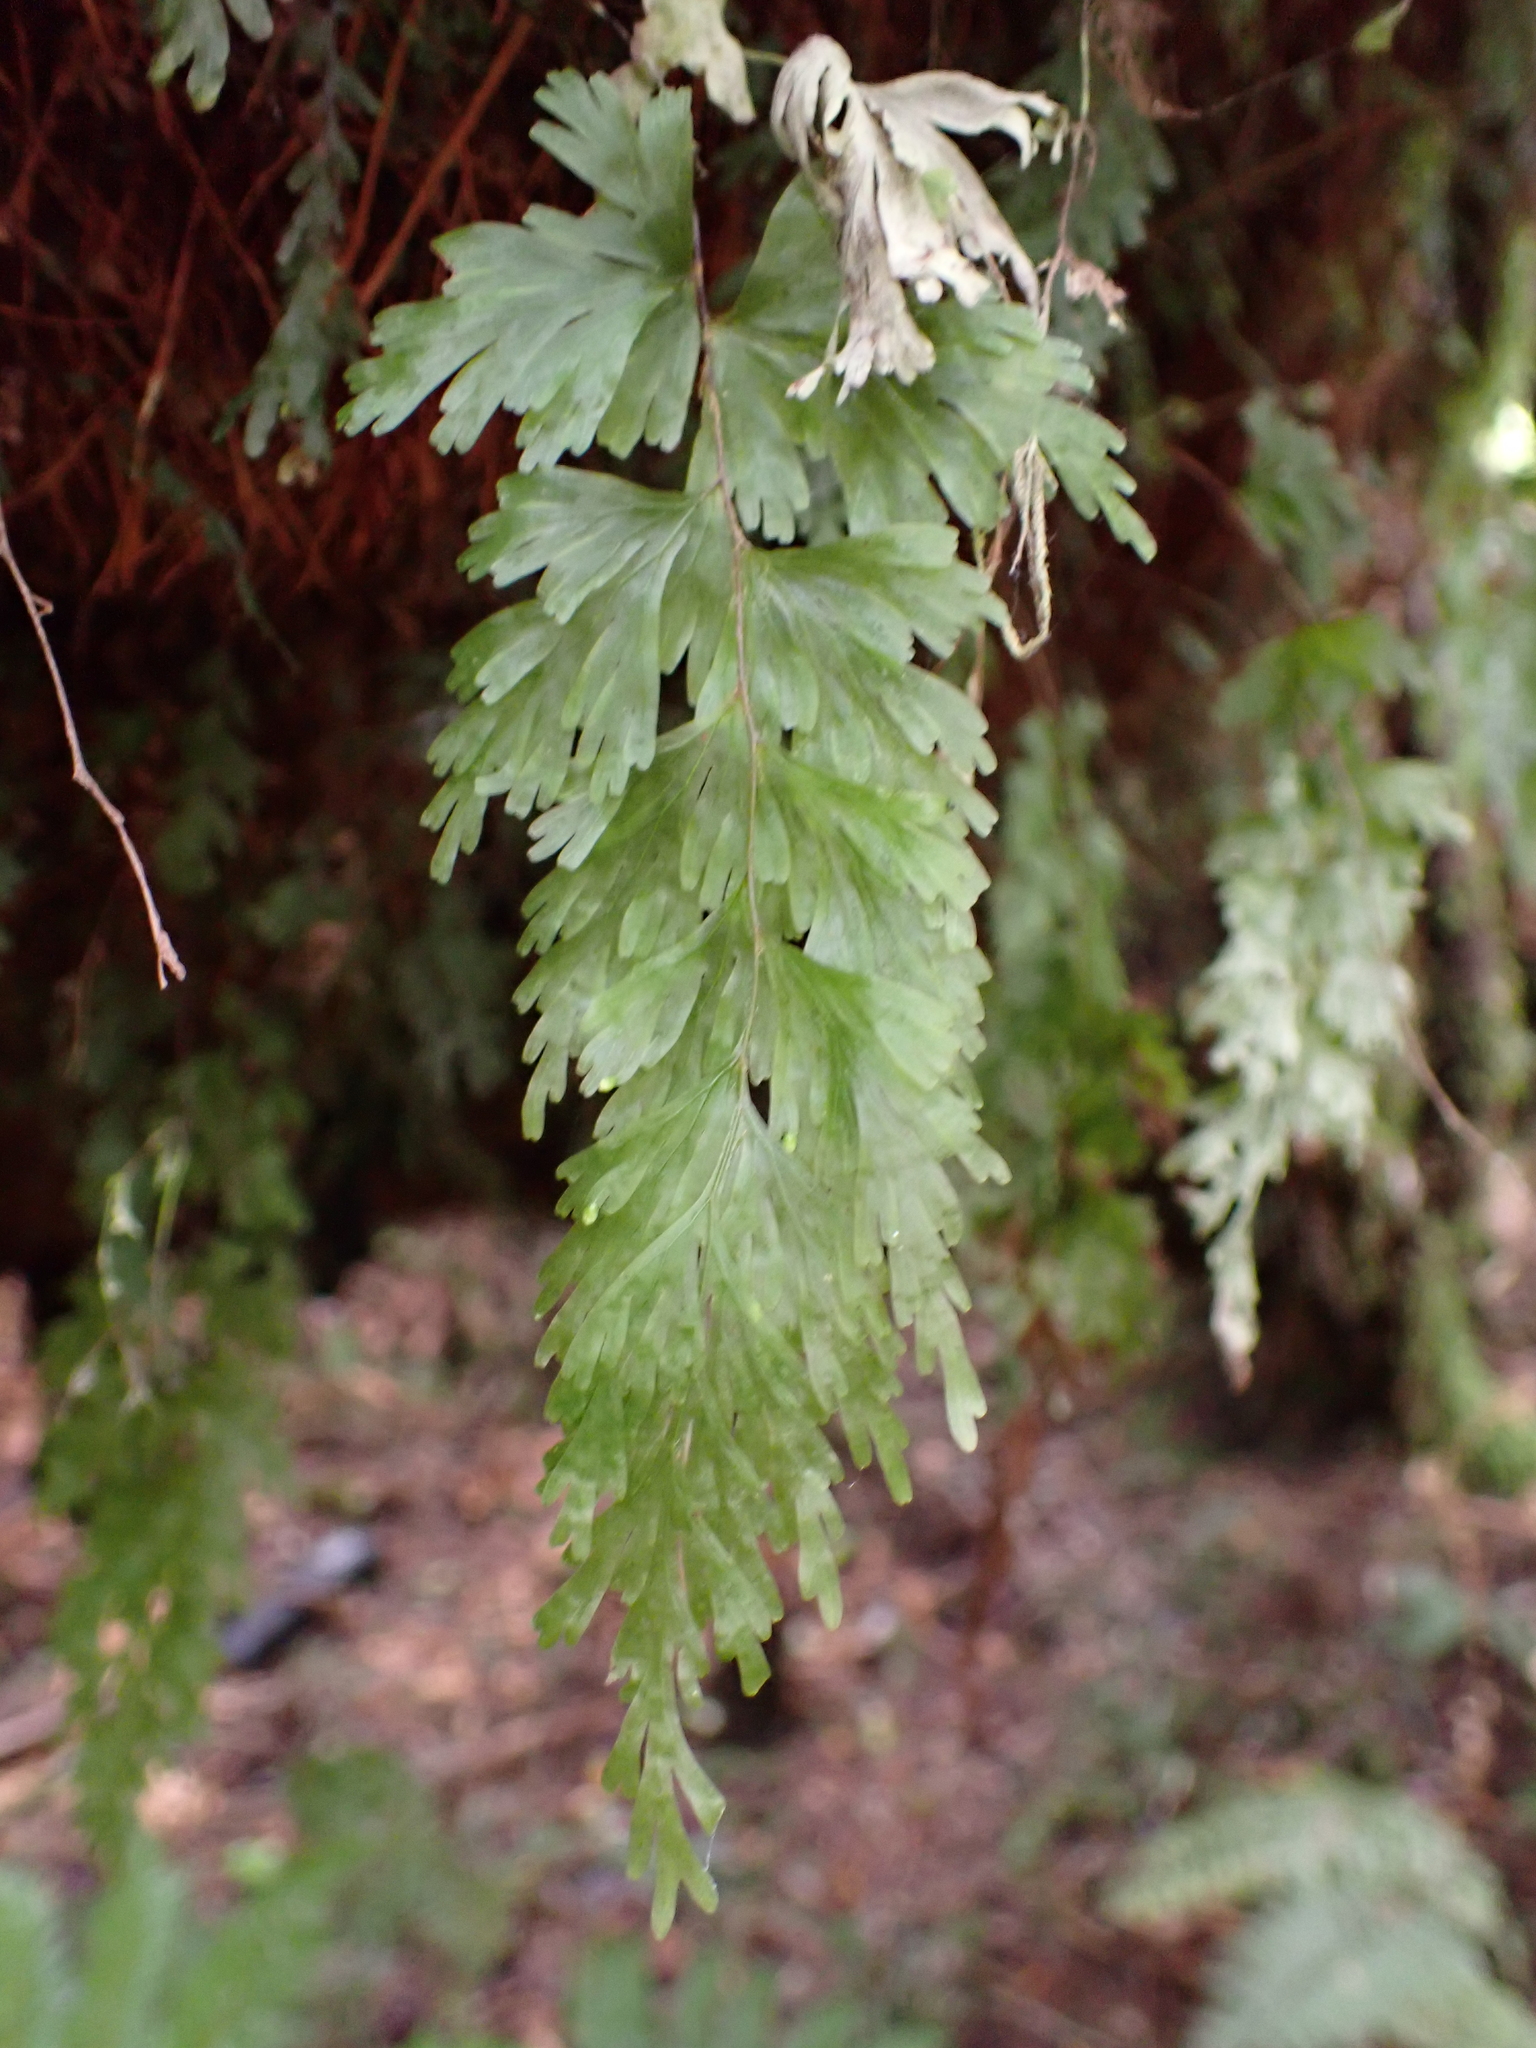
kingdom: Plantae
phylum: Tracheophyta
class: Polypodiopsida
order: Hymenophyllales
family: Hymenophyllaceae
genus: Hymenophyllum
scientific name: Hymenophyllum flabellatum
